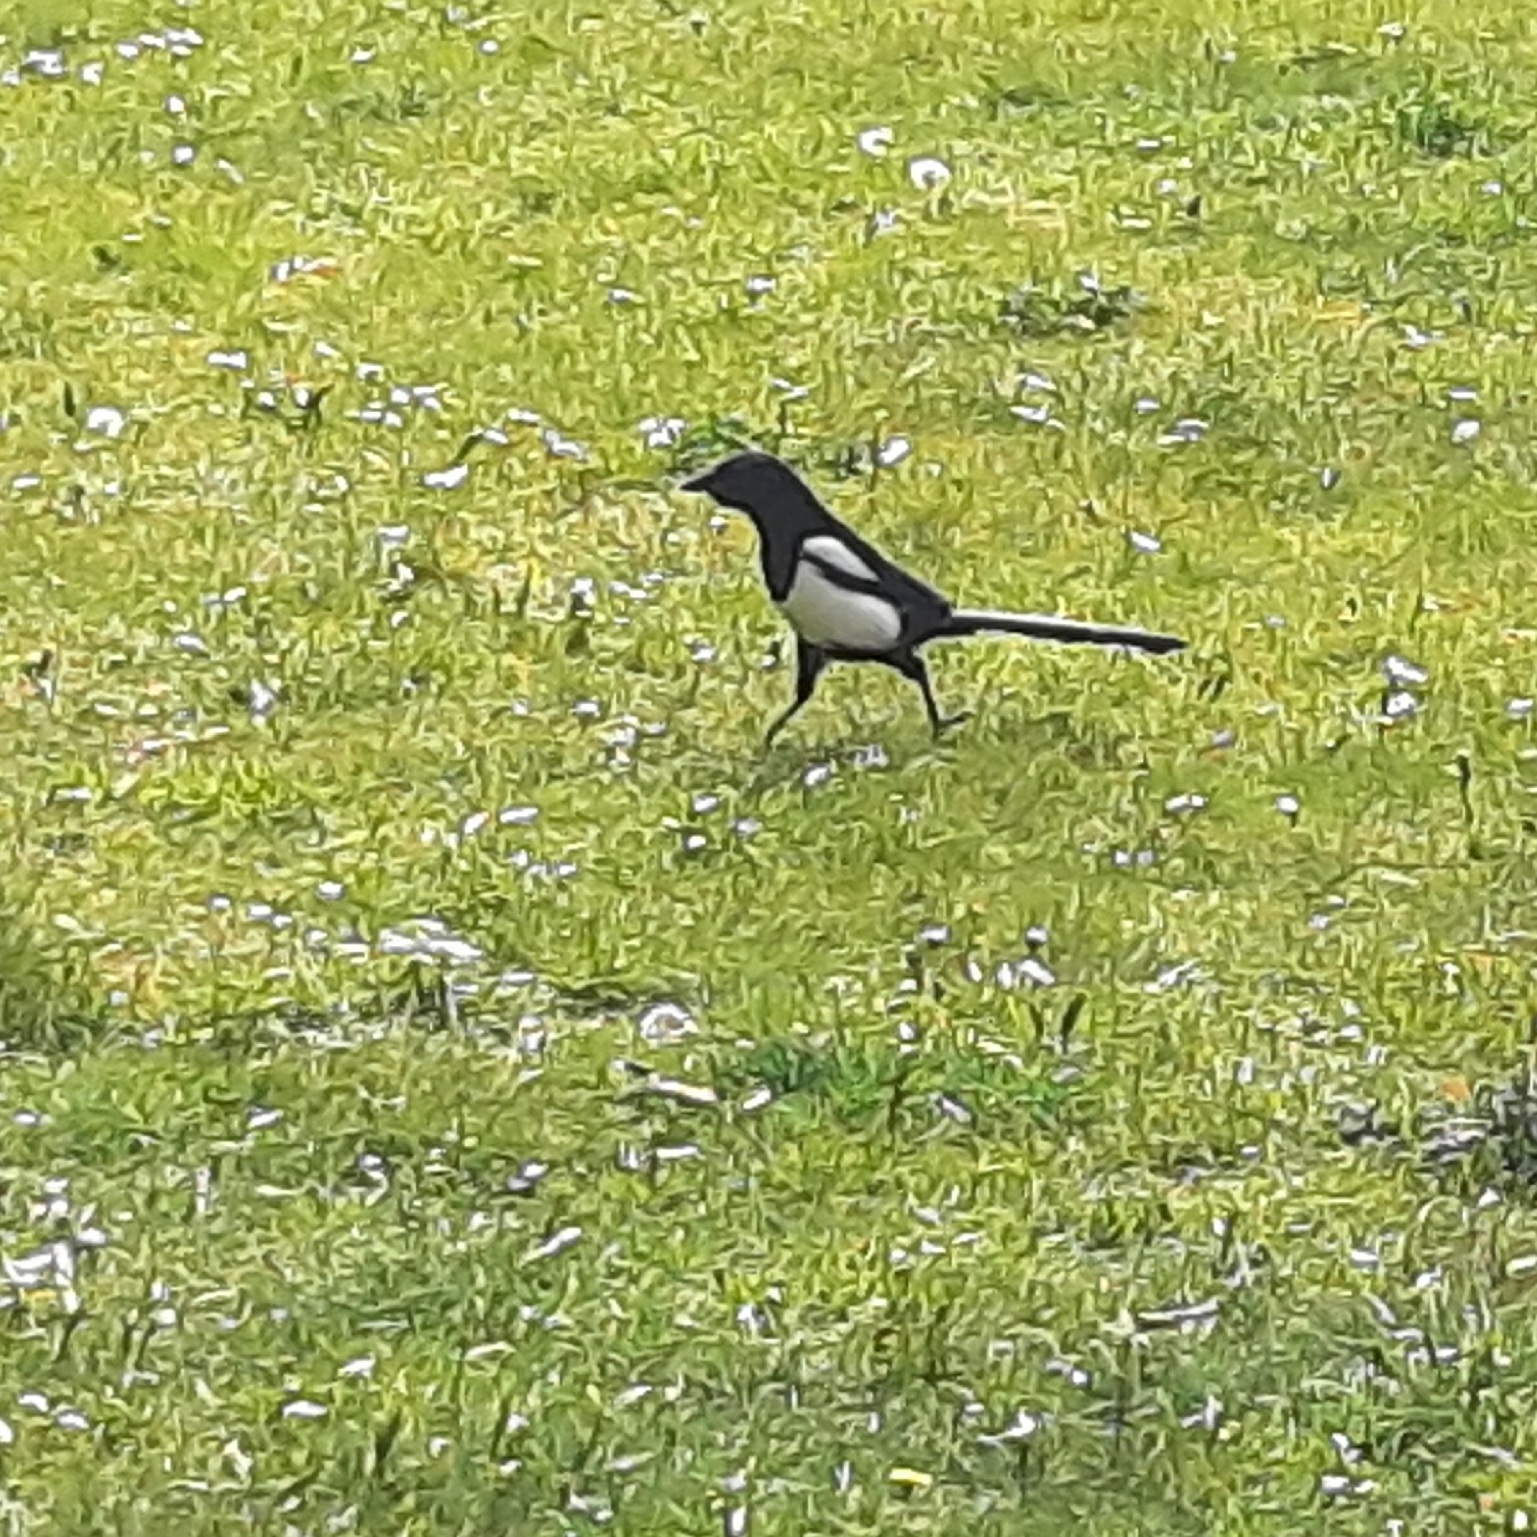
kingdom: Animalia
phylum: Chordata
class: Aves
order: Passeriformes
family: Corvidae
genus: Pica
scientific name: Pica pica
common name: Eurasian magpie
